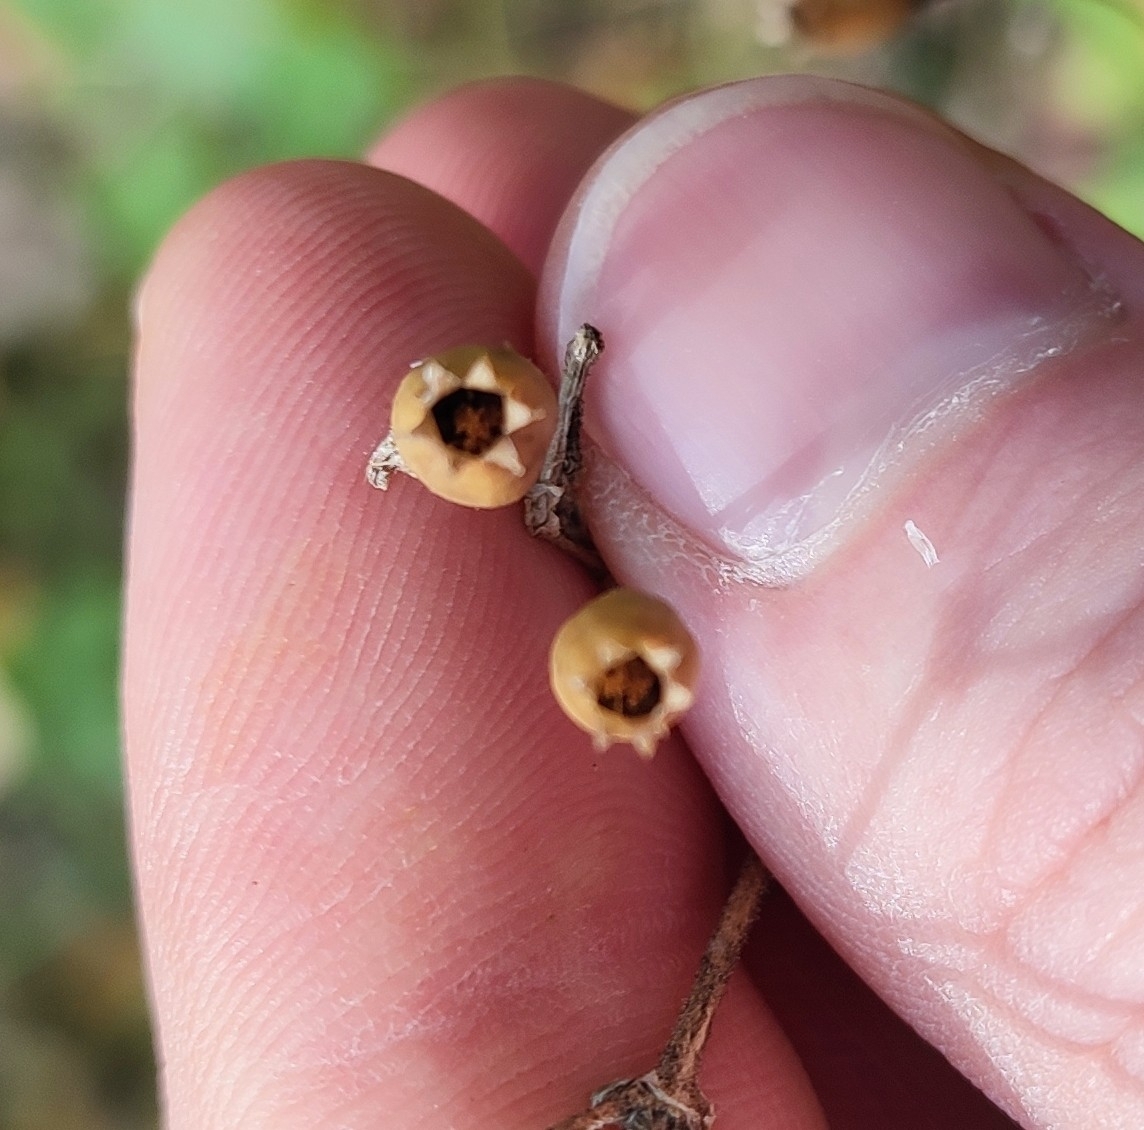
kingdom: Plantae
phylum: Tracheophyta
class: Magnoliopsida
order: Caryophyllales
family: Caryophyllaceae
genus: Silene
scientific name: Silene nutans
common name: Nottingham catchfly
